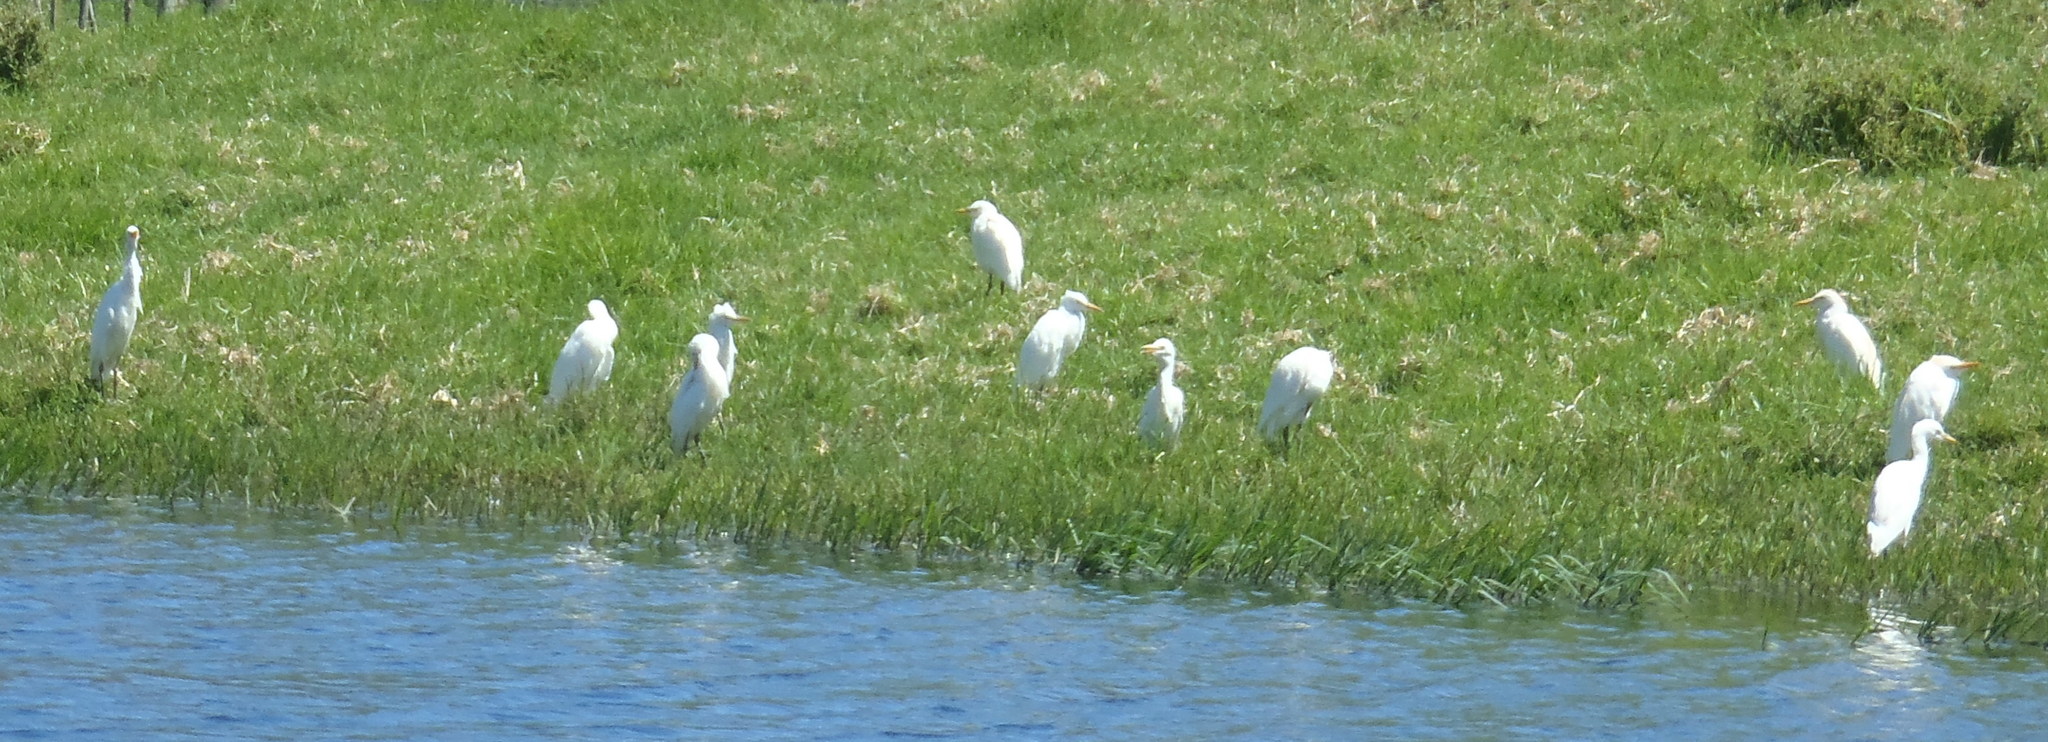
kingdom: Animalia
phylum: Chordata
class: Aves
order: Pelecaniformes
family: Ardeidae
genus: Bubulcus
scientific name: Bubulcus ibis
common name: Cattle egret
